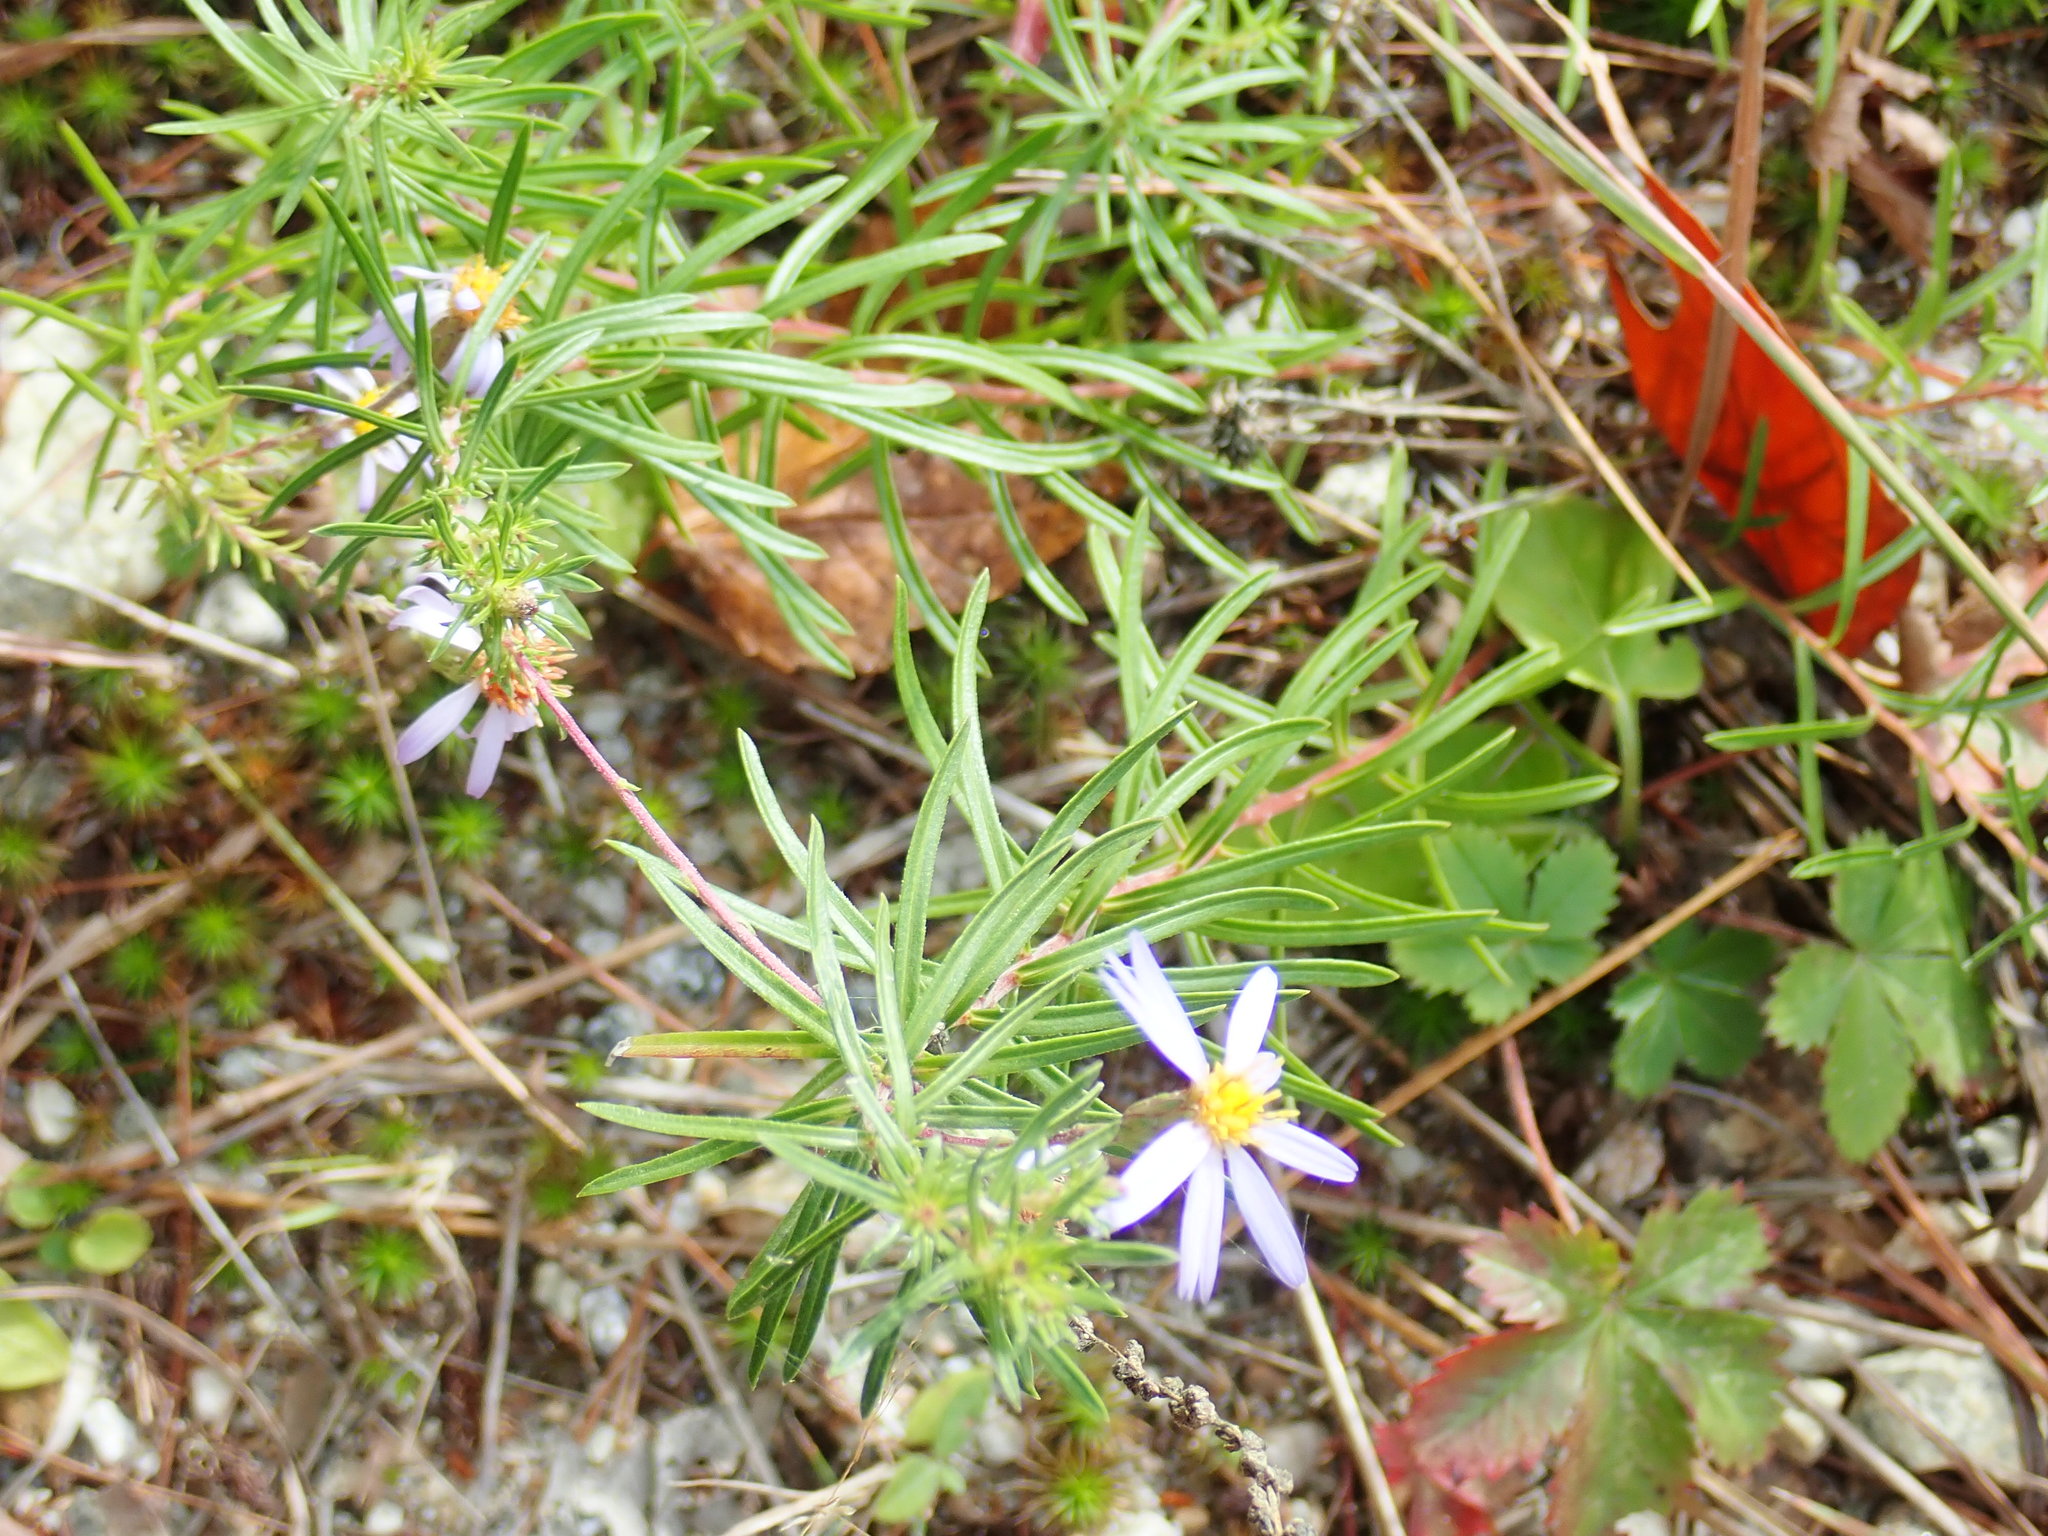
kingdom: Plantae
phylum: Tracheophyta
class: Magnoliopsida
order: Asterales
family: Asteraceae
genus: Ionactis
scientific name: Ionactis linariifolia
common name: Flax-leaf aster
